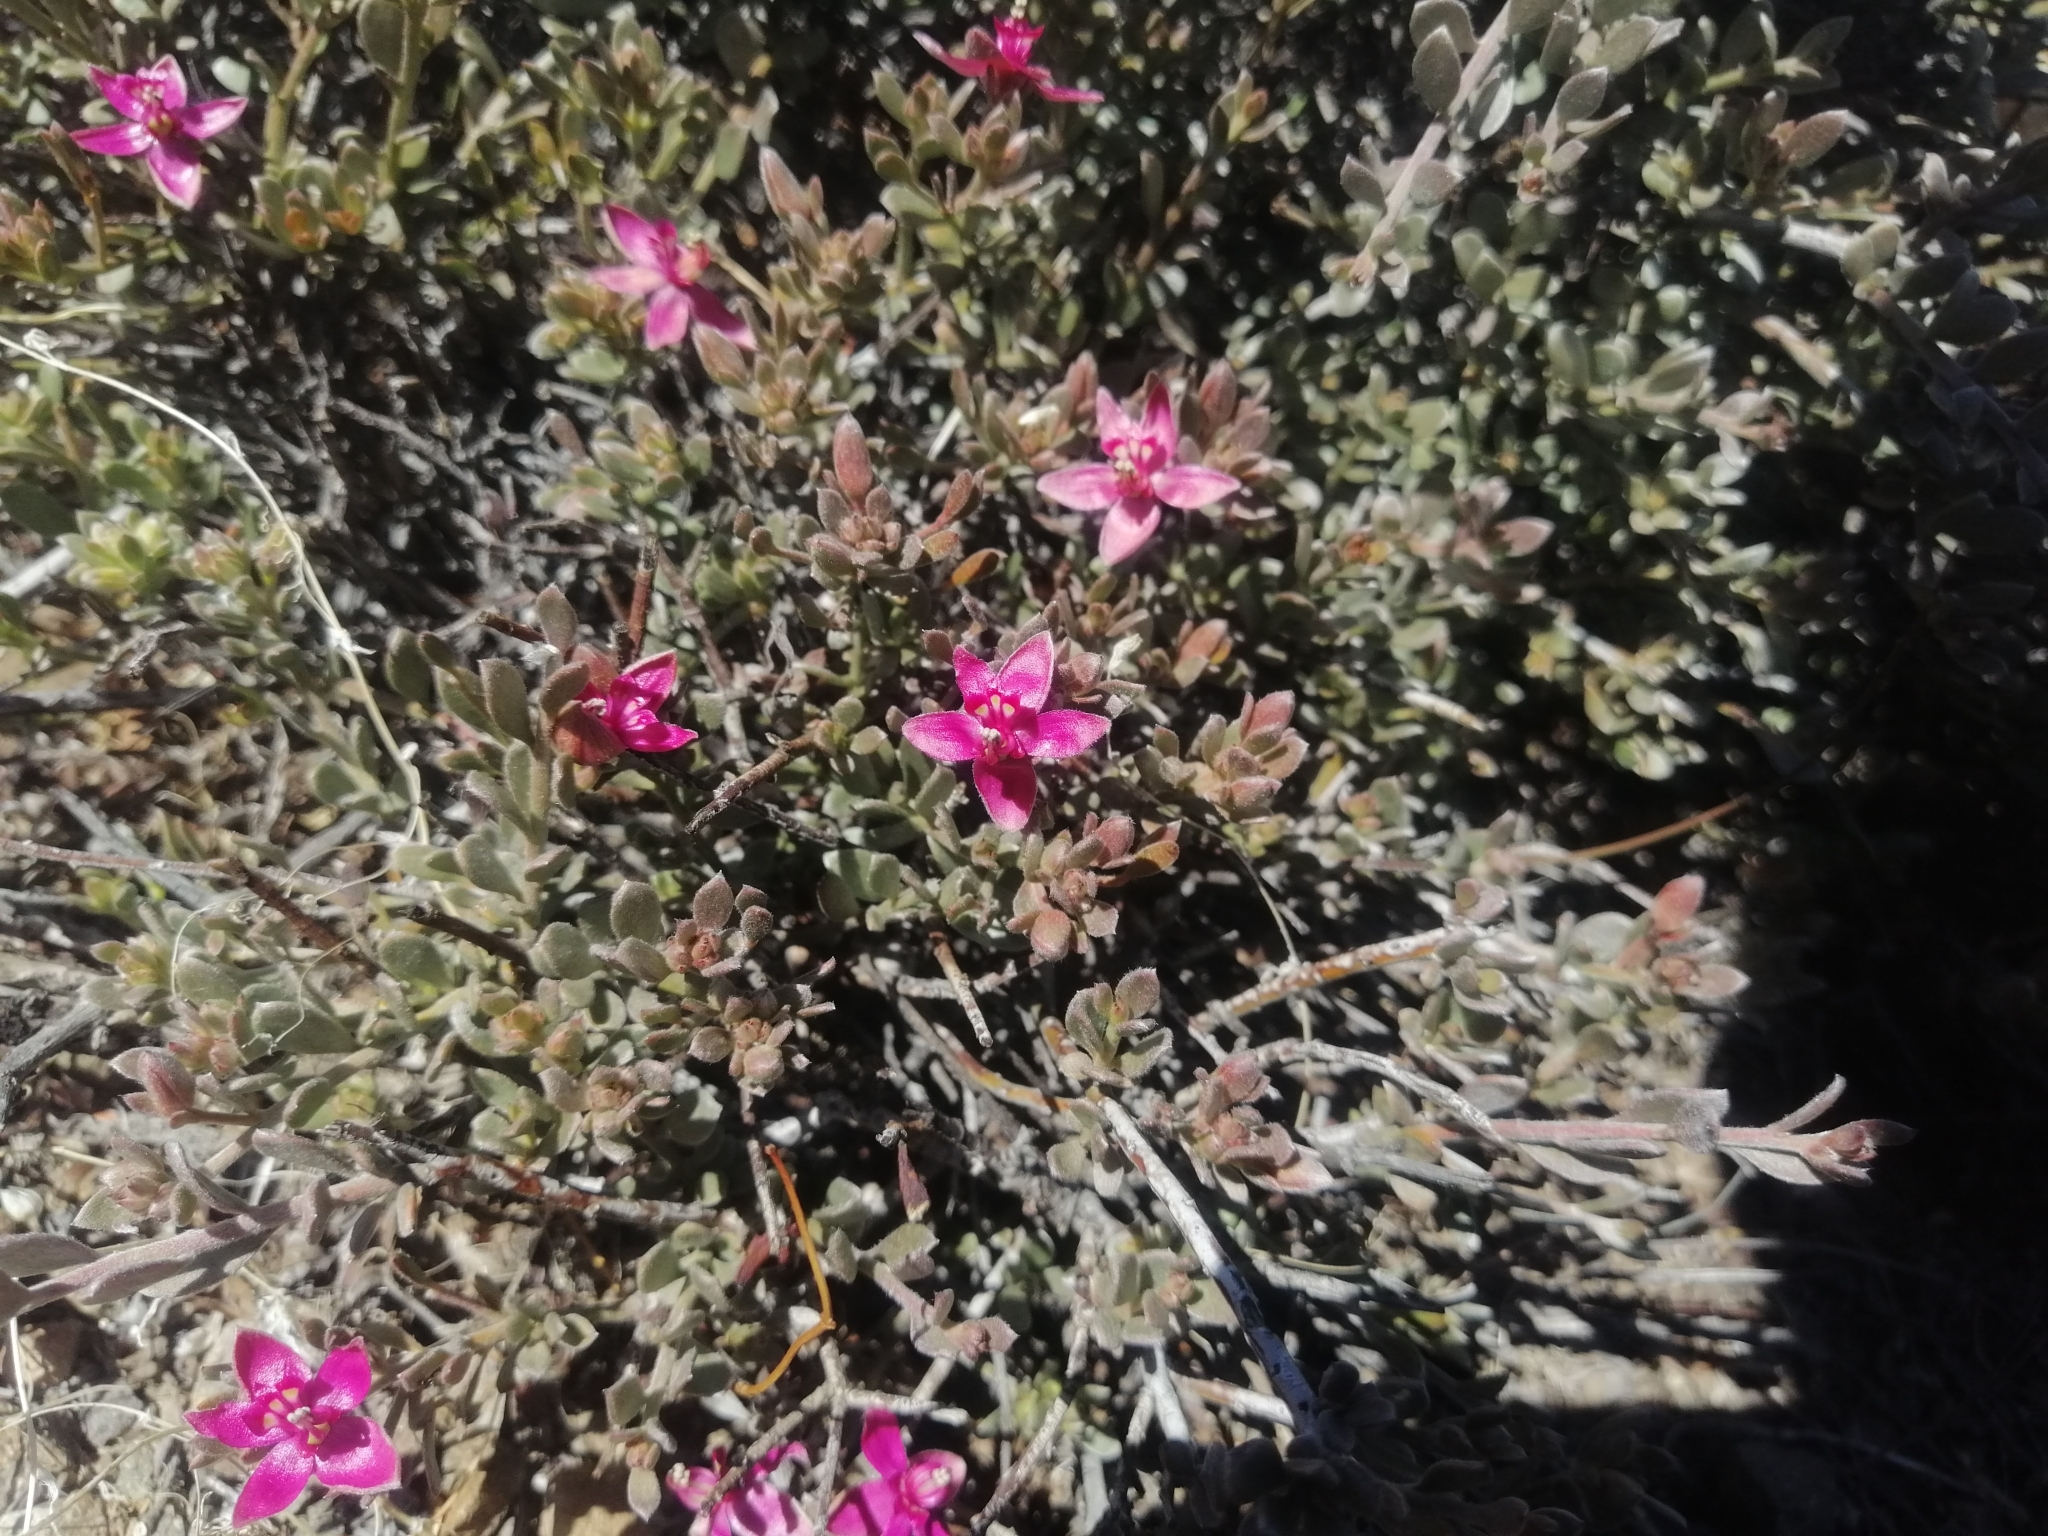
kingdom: Plantae
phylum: Tracheophyta
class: Magnoliopsida
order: Zygophyllales
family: Krameriaceae
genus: Krameria
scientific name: Krameria cistoidea
